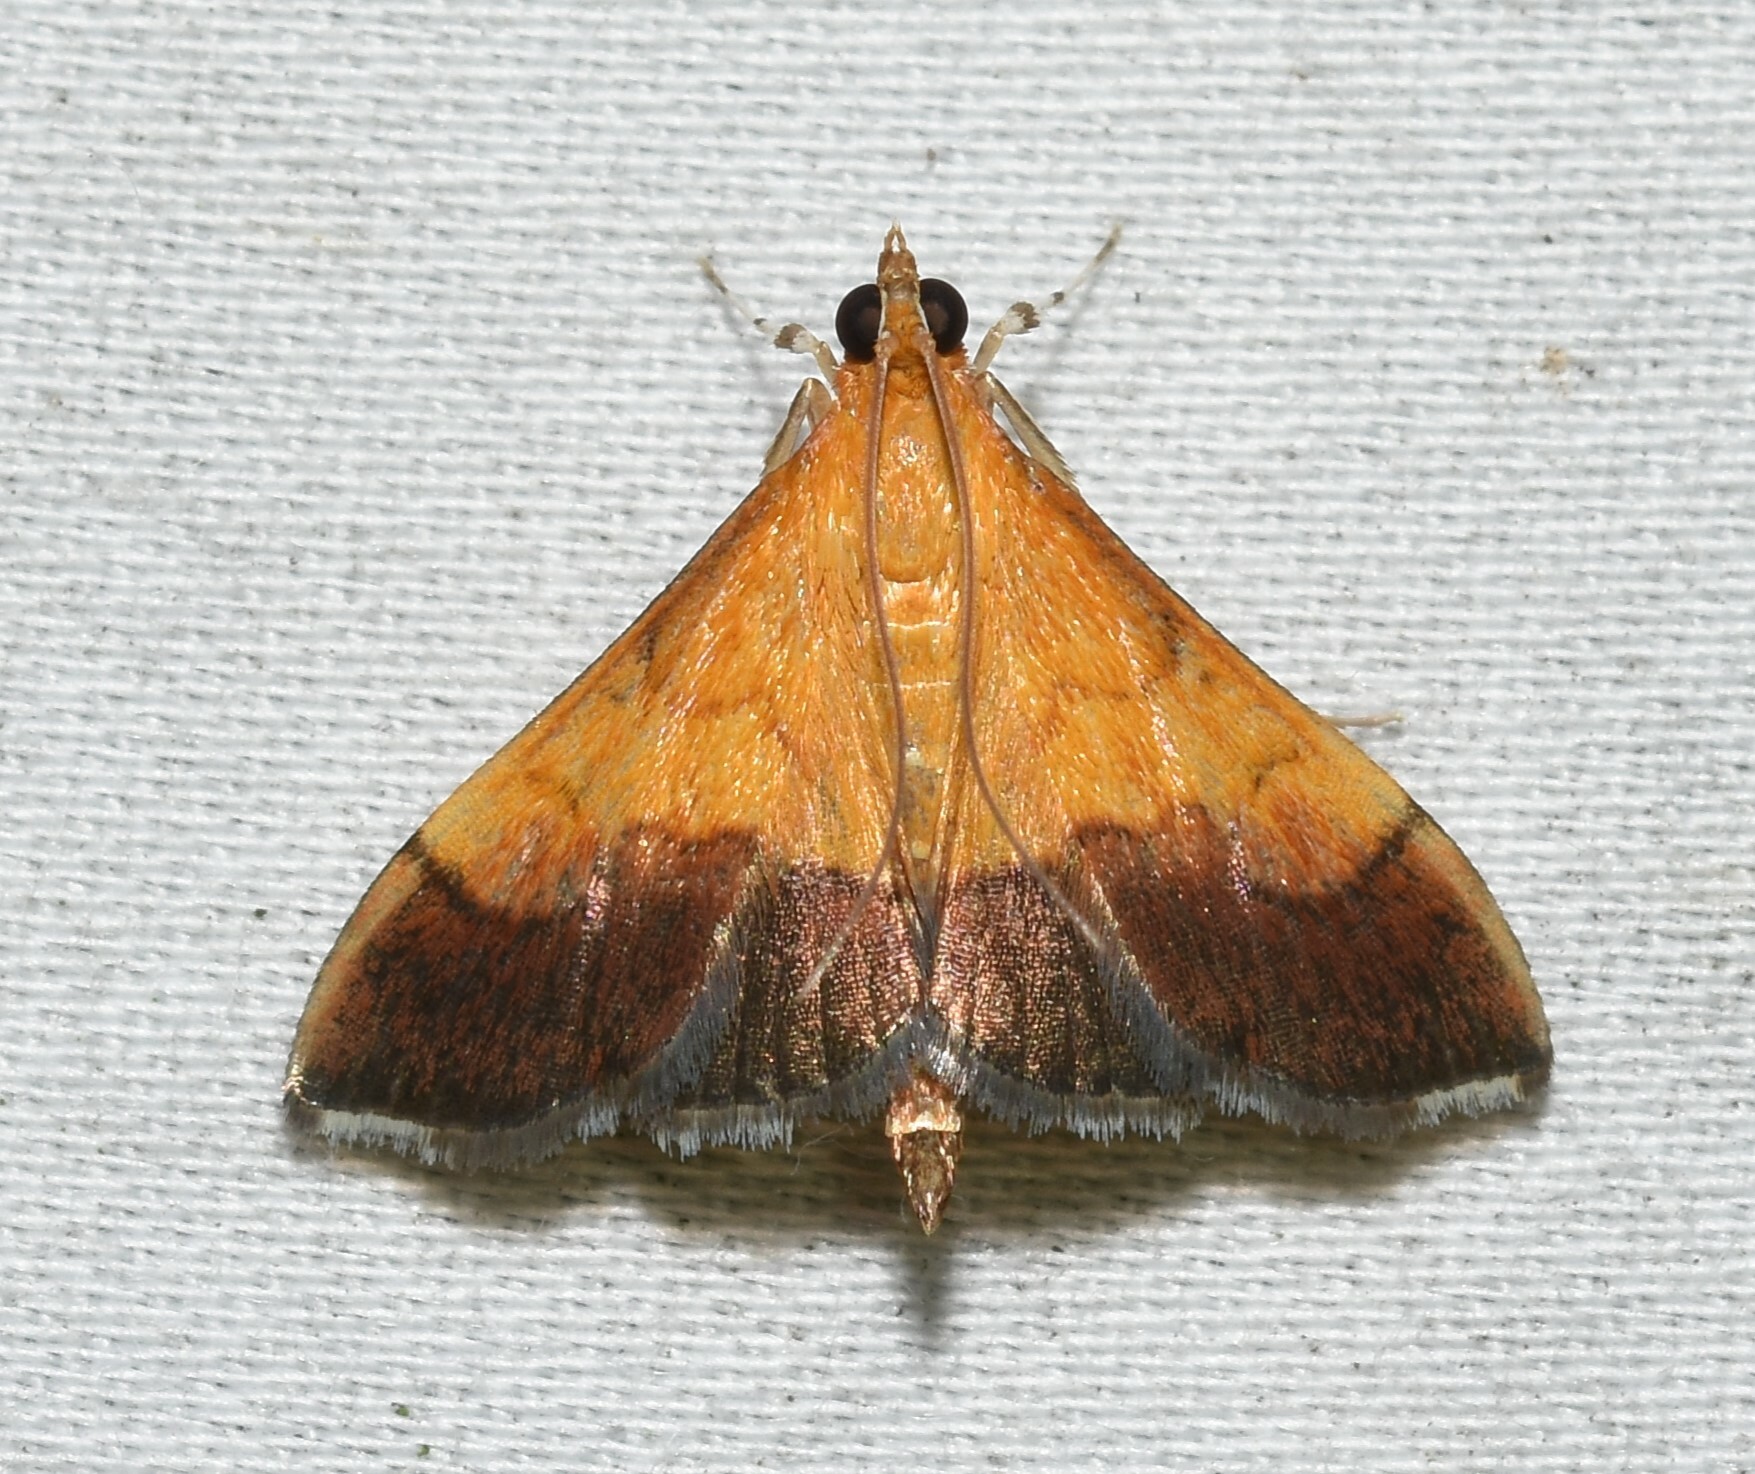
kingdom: Animalia
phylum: Arthropoda
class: Insecta
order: Lepidoptera
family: Crambidae
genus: Pyrausta
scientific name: Pyrausta bicoloralis
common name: Bicolored pyrausta moth
